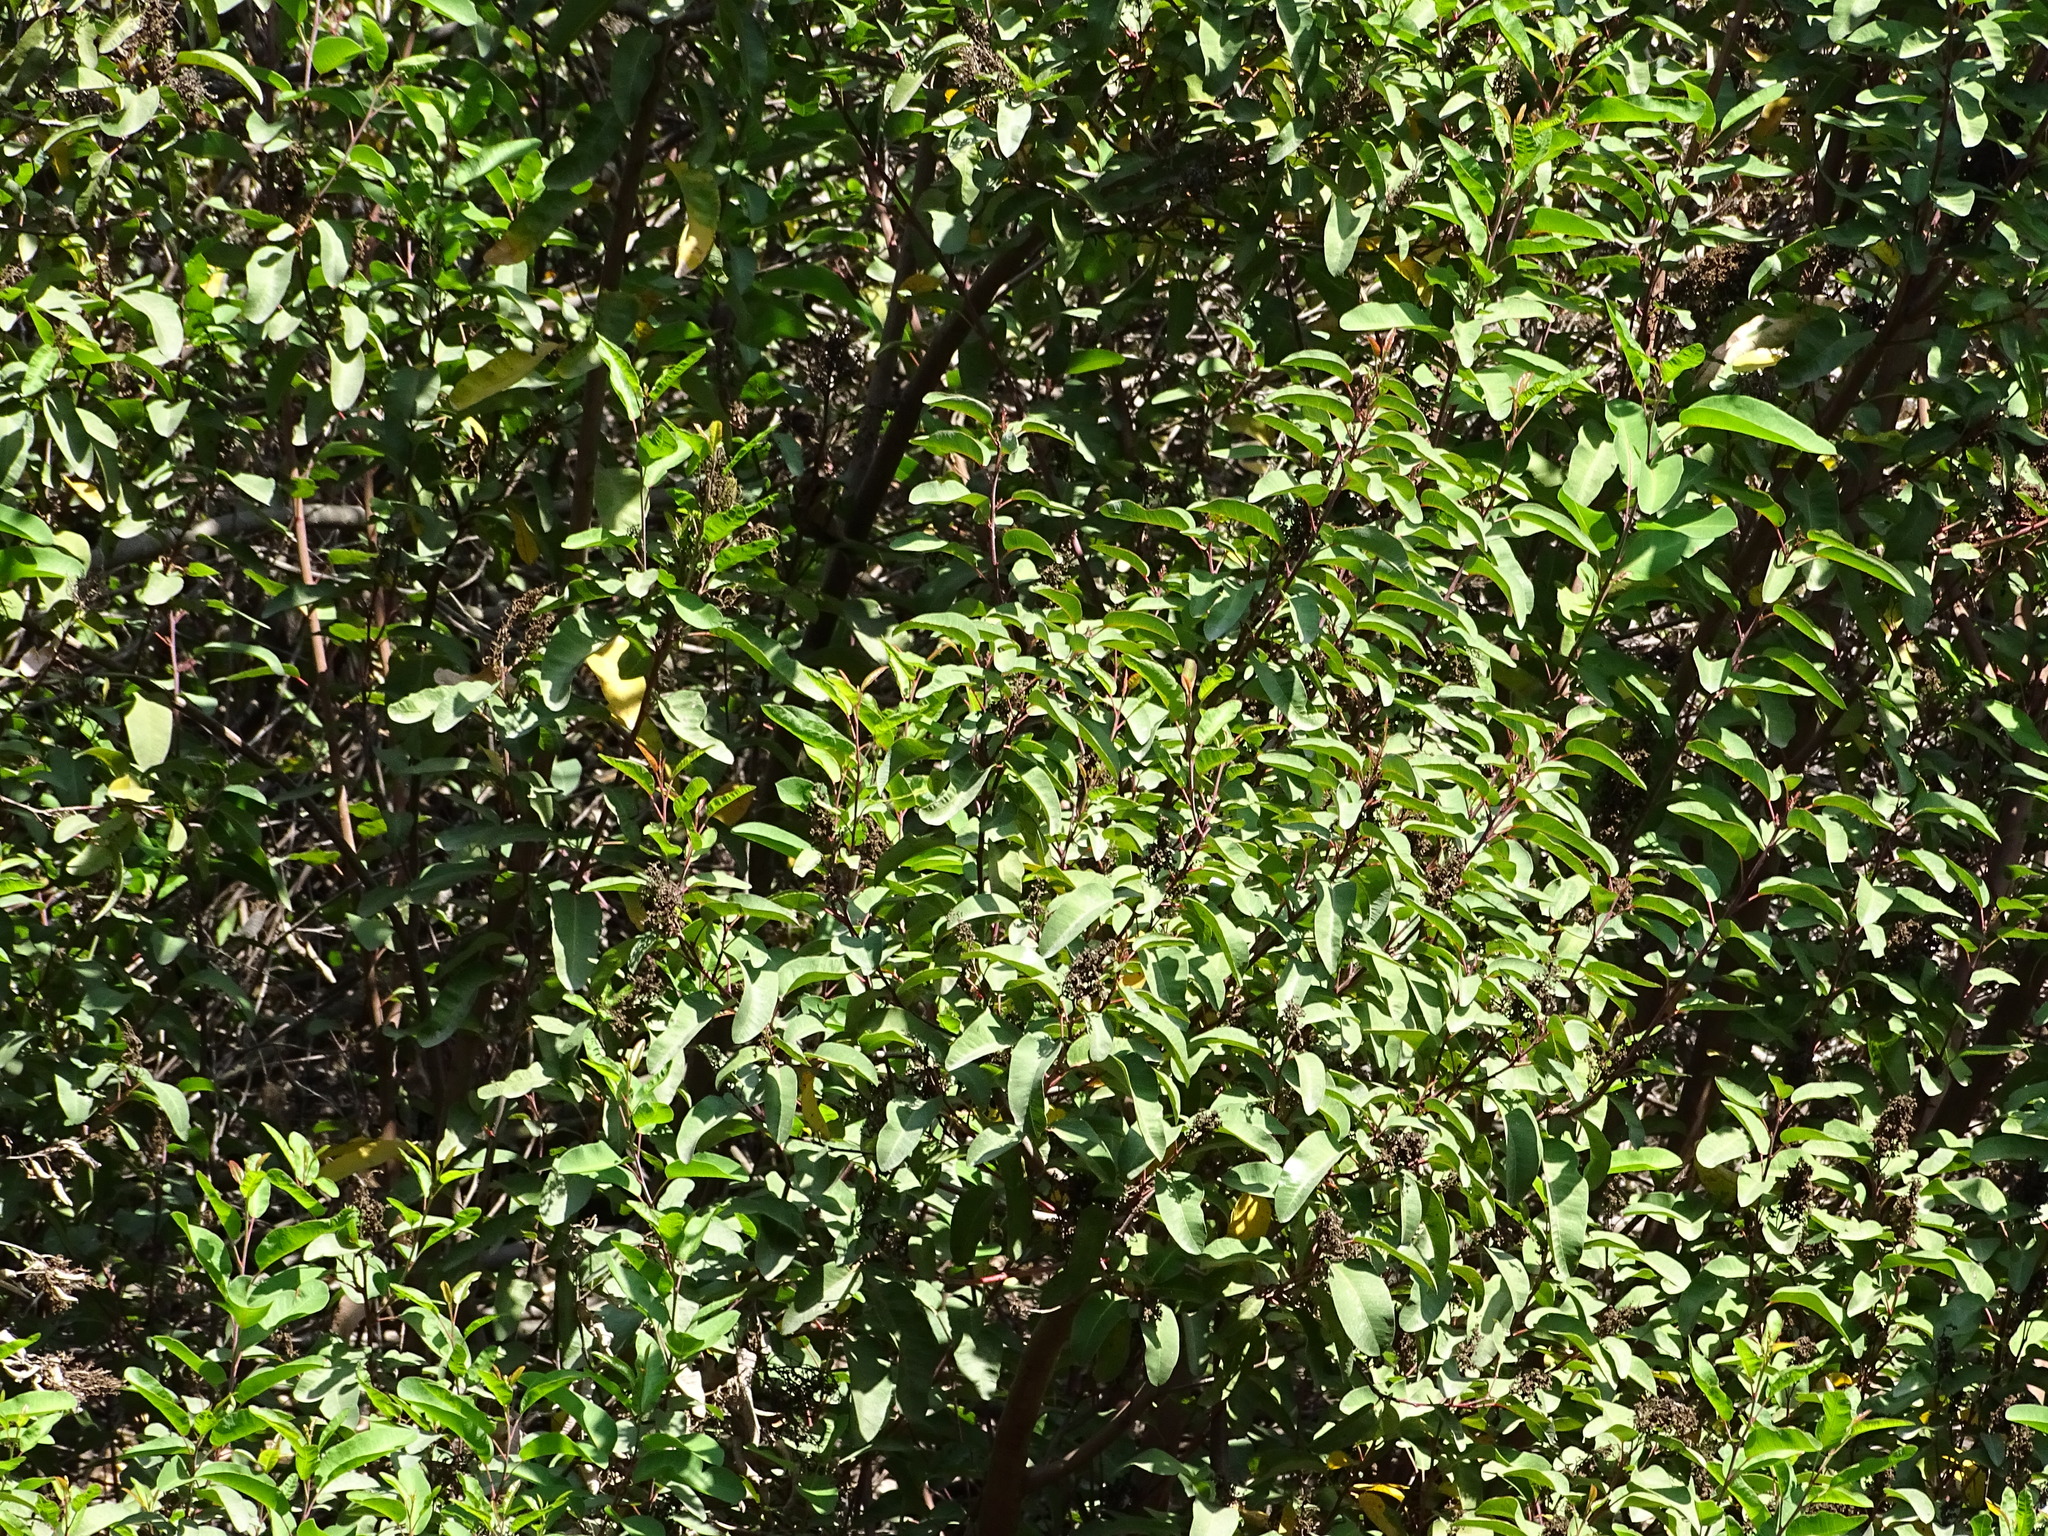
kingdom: Plantae
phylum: Tracheophyta
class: Magnoliopsida
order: Sapindales
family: Anacardiaceae
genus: Malosma
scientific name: Malosma laurina
